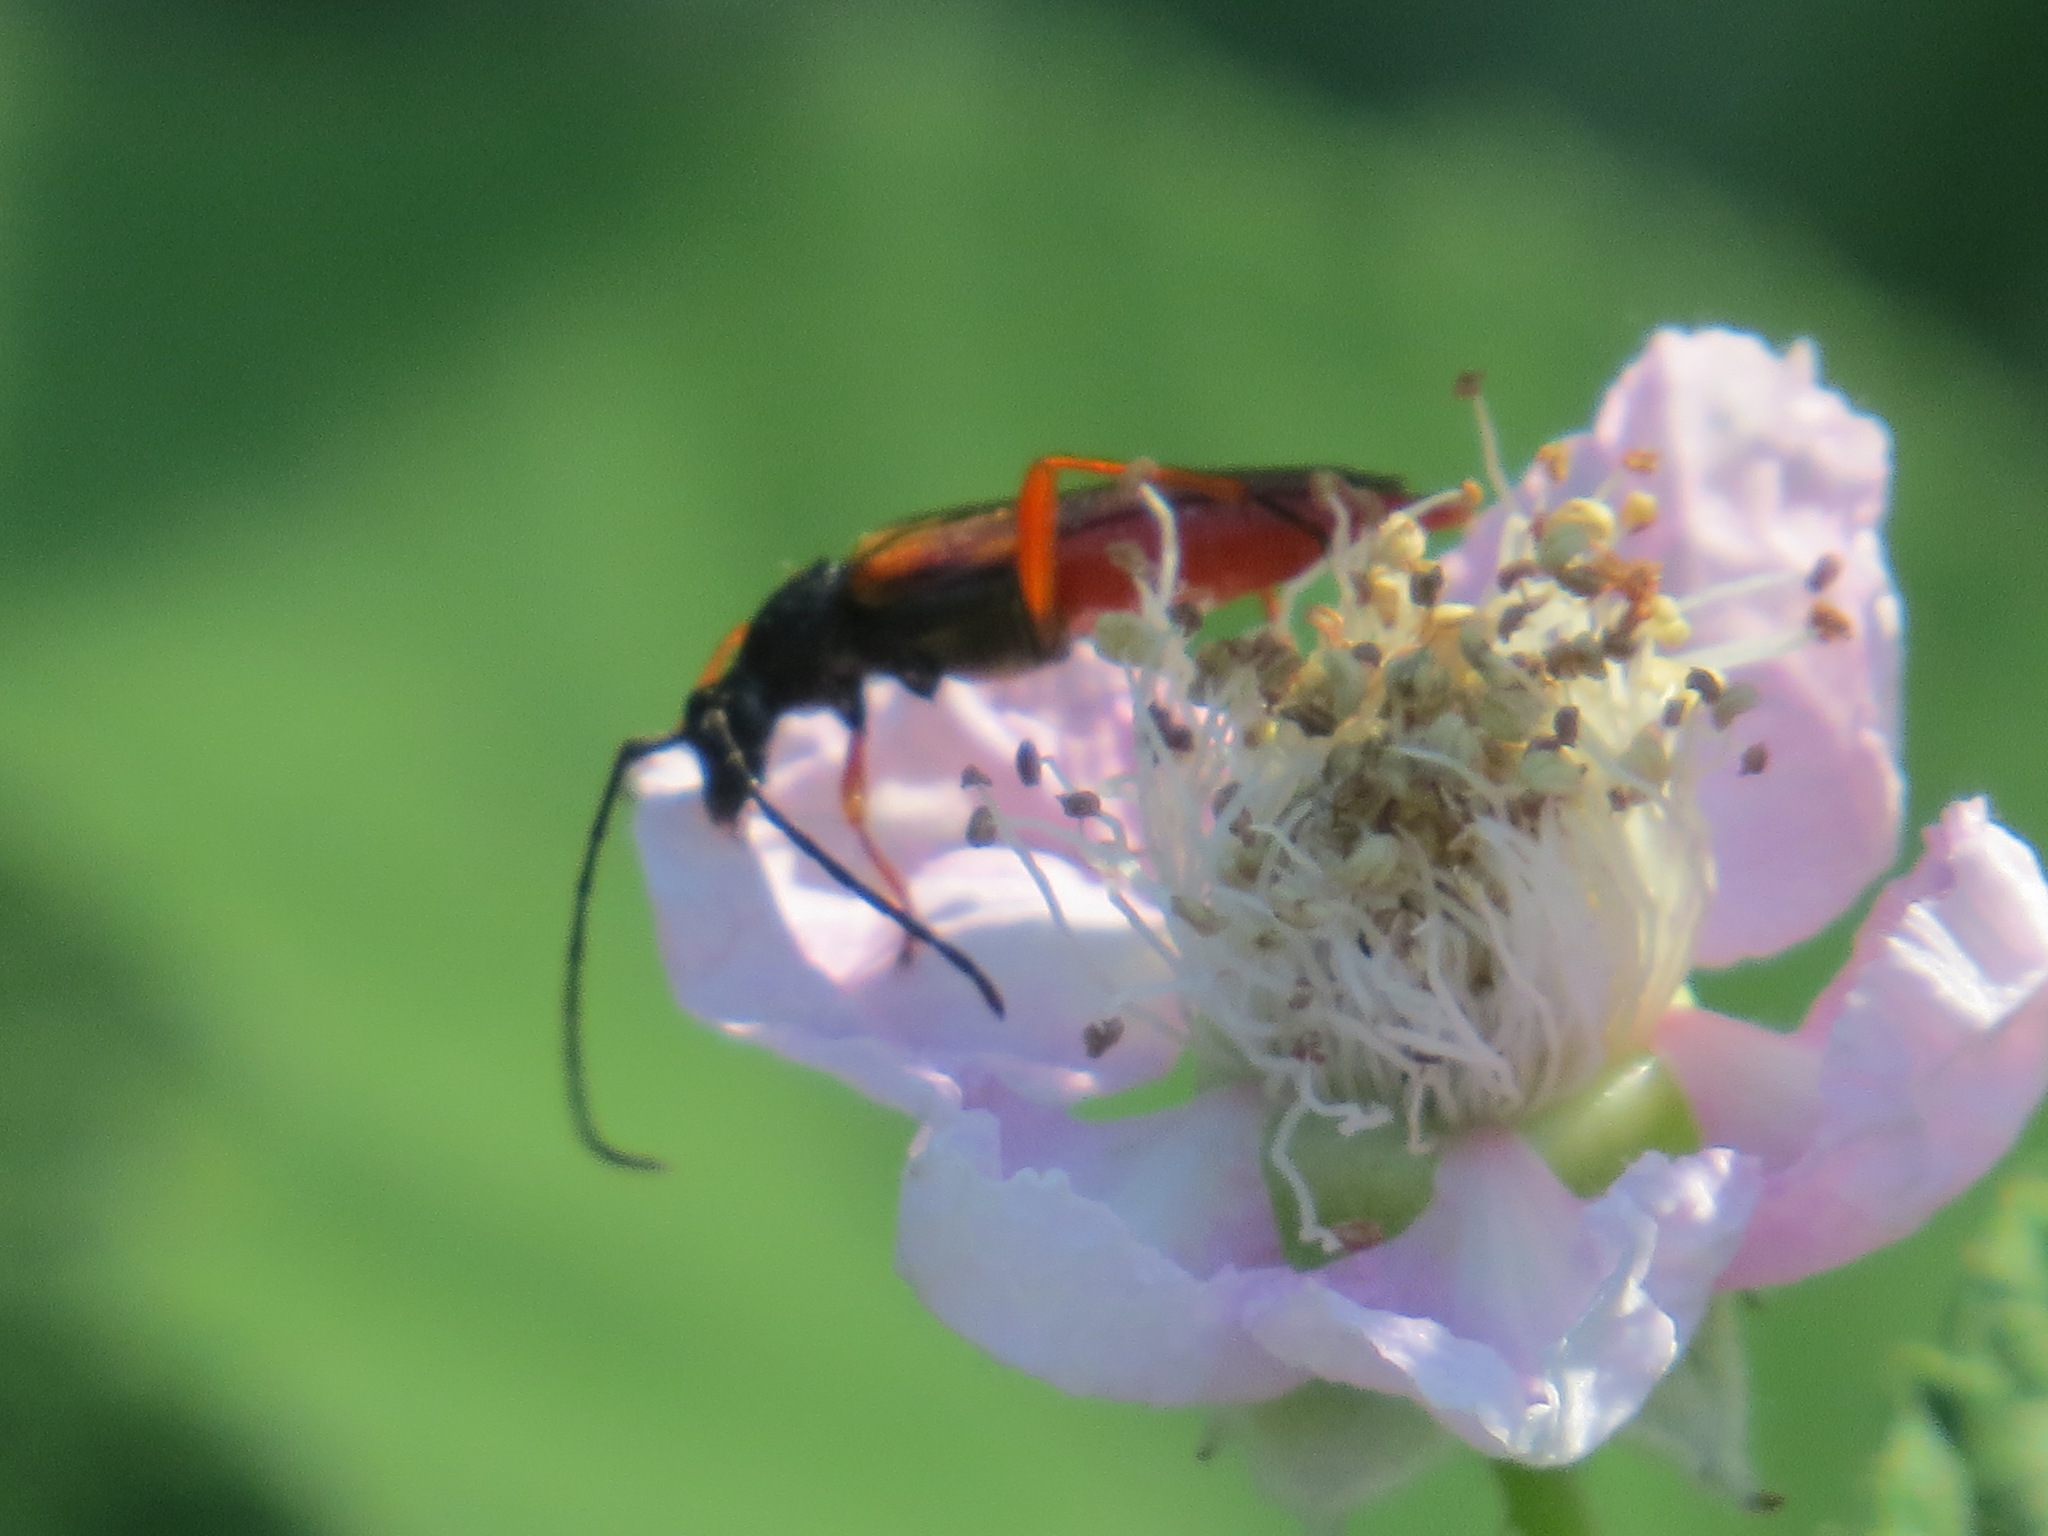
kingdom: Animalia
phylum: Arthropoda
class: Insecta
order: Coleoptera
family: Cerambycidae
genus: Neobellamira
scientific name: Neobellamira delicata
